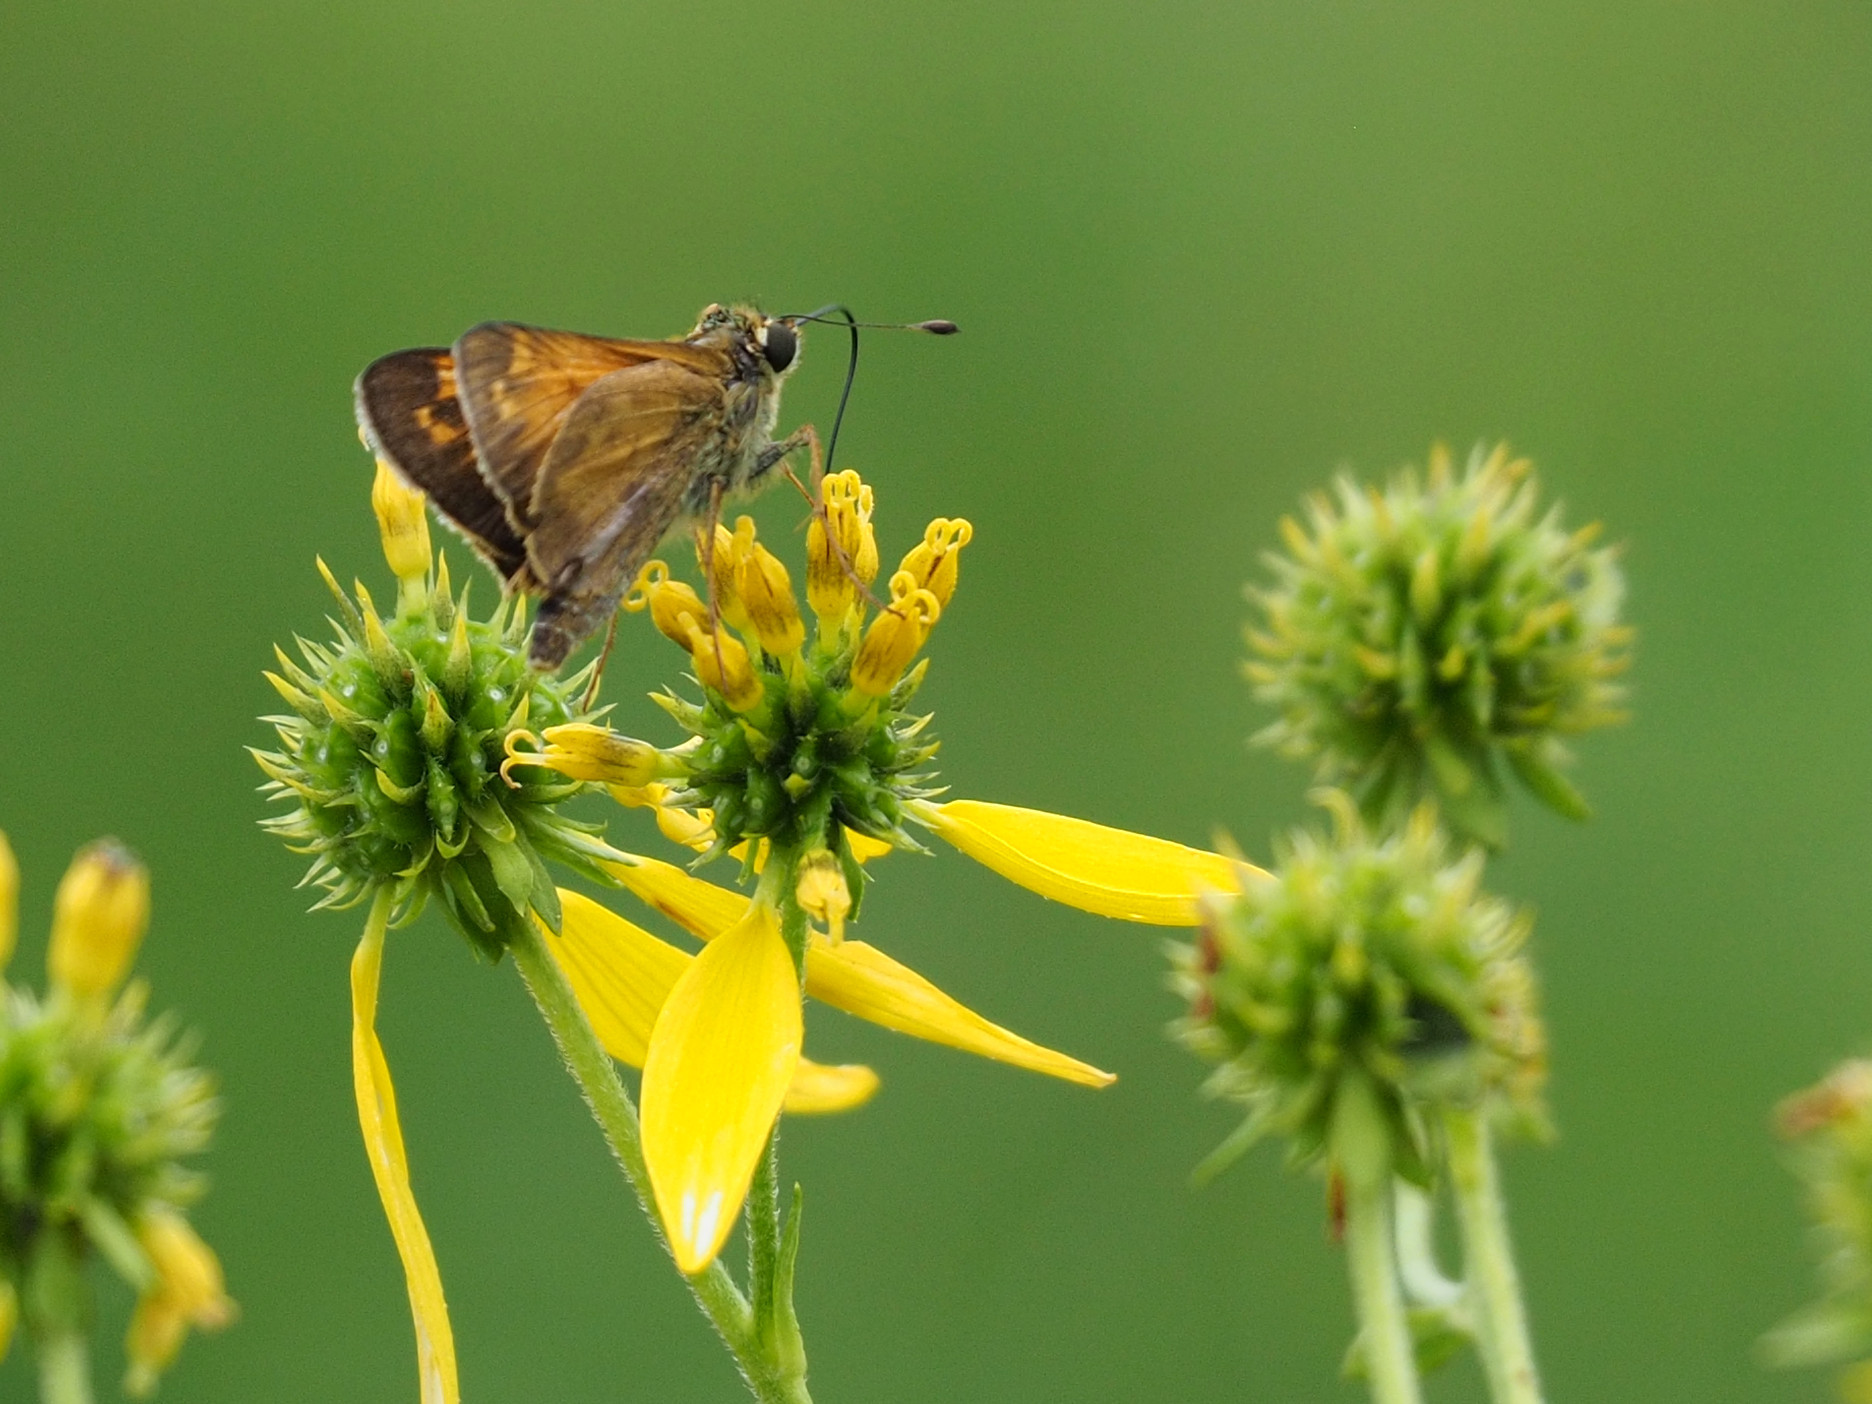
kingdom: Animalia
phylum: Arthropoda
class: Insecta
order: Lepidoptera
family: Hesperiidae
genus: Atalopedes
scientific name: Atalopedes
